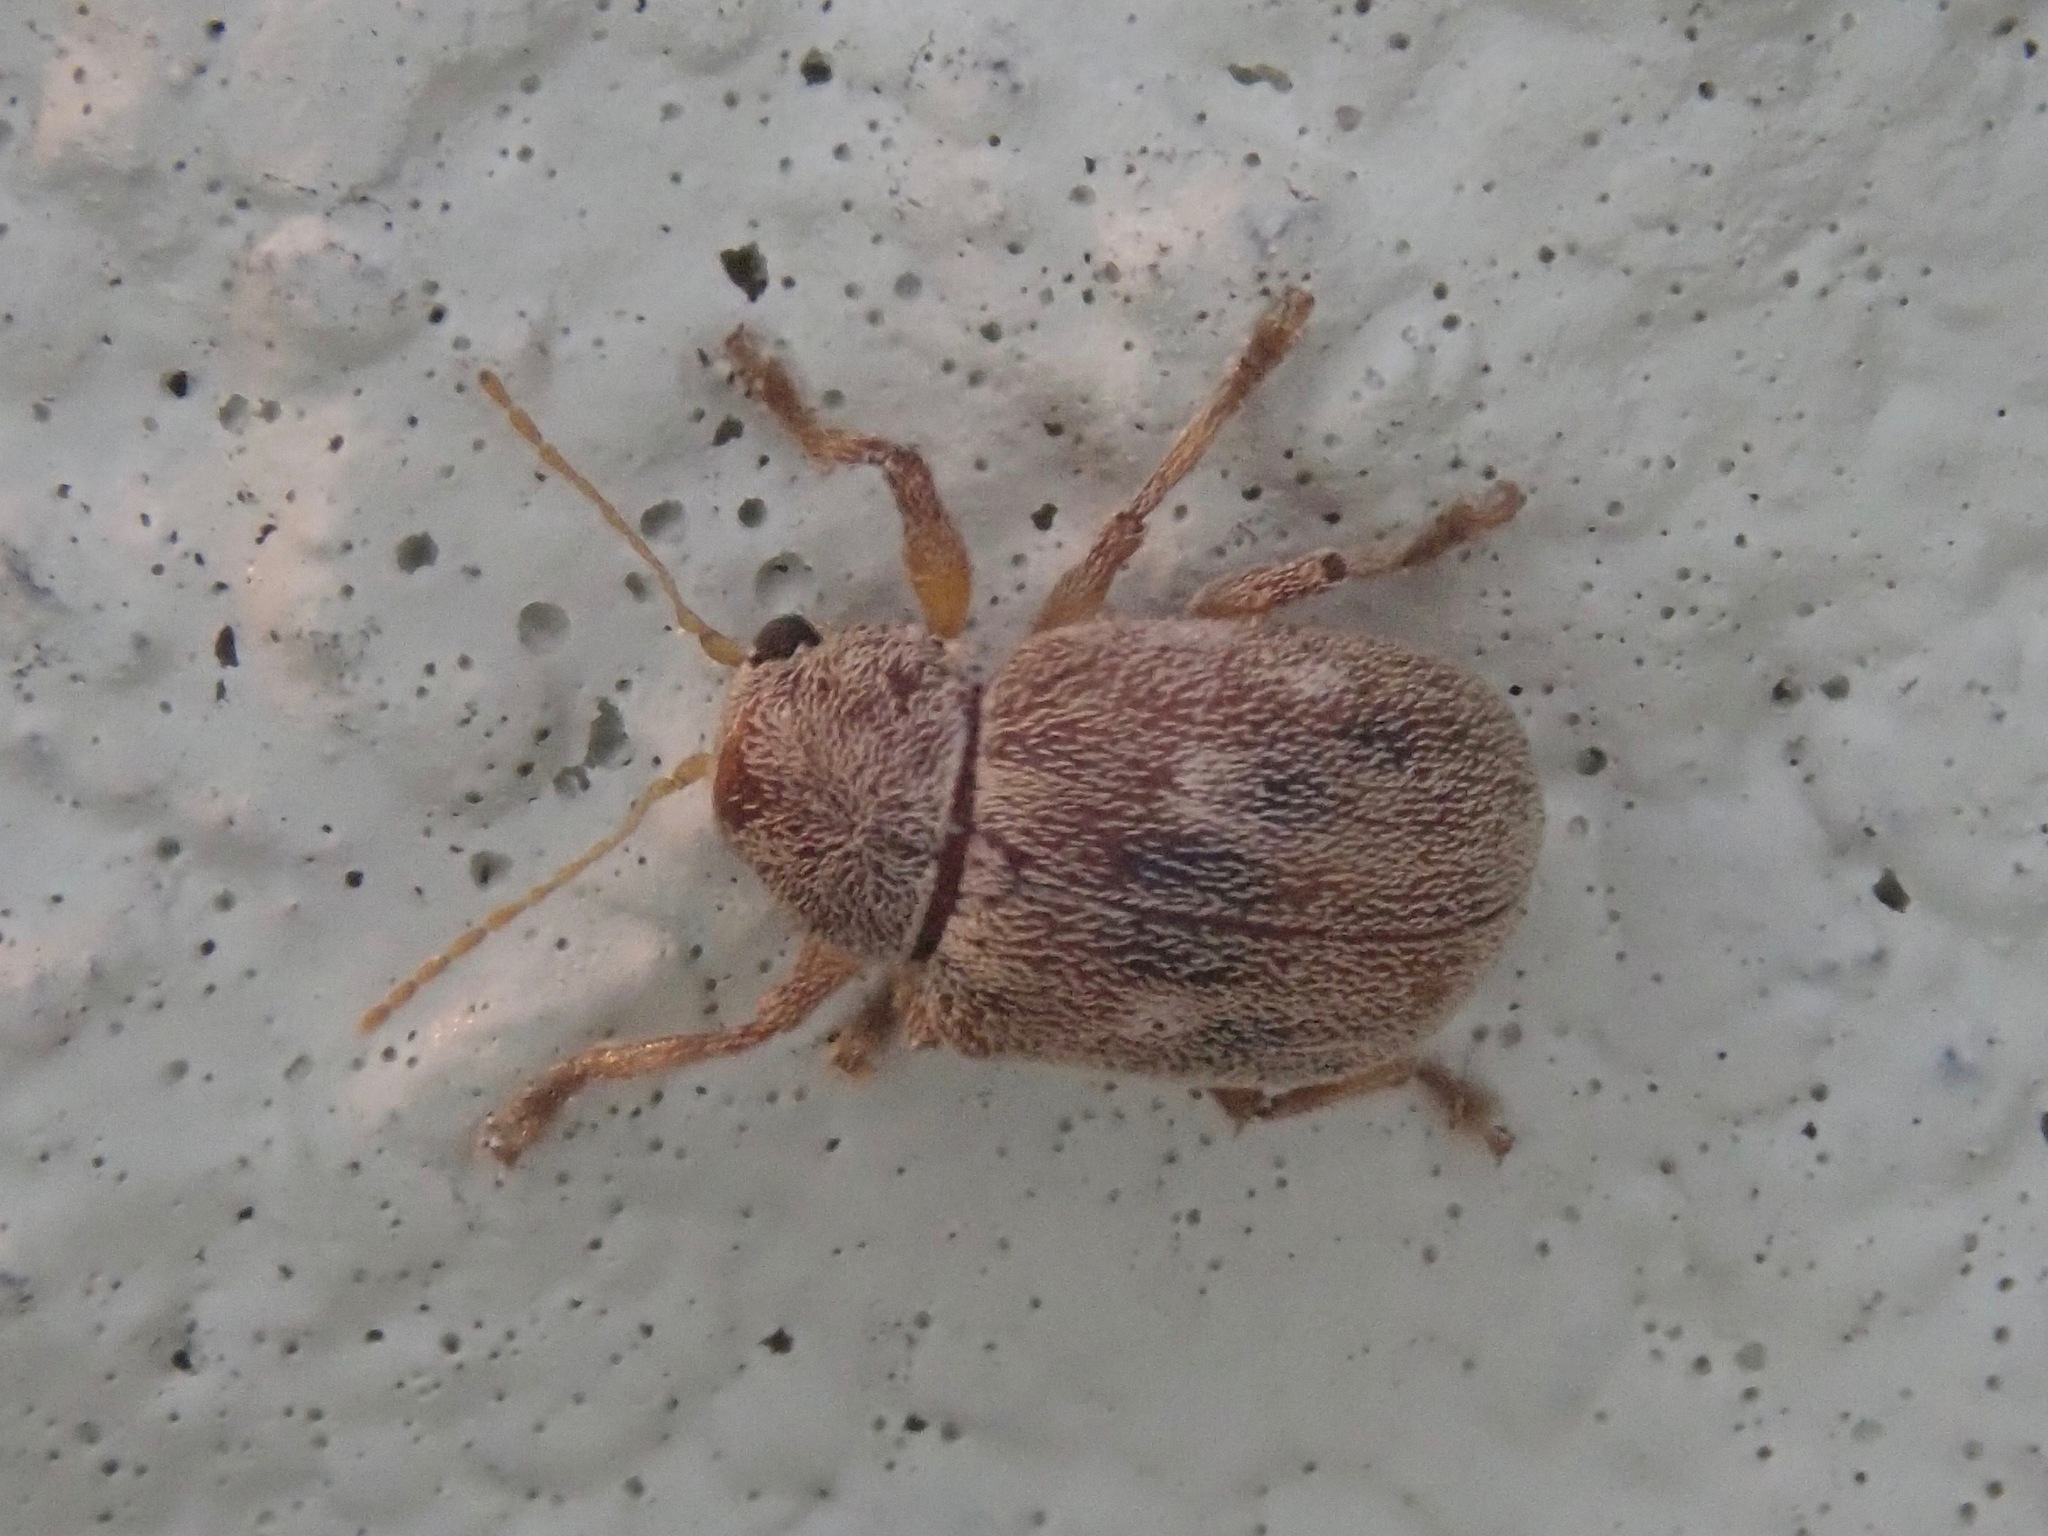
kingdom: Animalia
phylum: Arthropoda
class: Insecta
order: Coleoptera
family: Chrysomelidae
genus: Demotina
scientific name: Demotina modesta
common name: Leaf beetle
